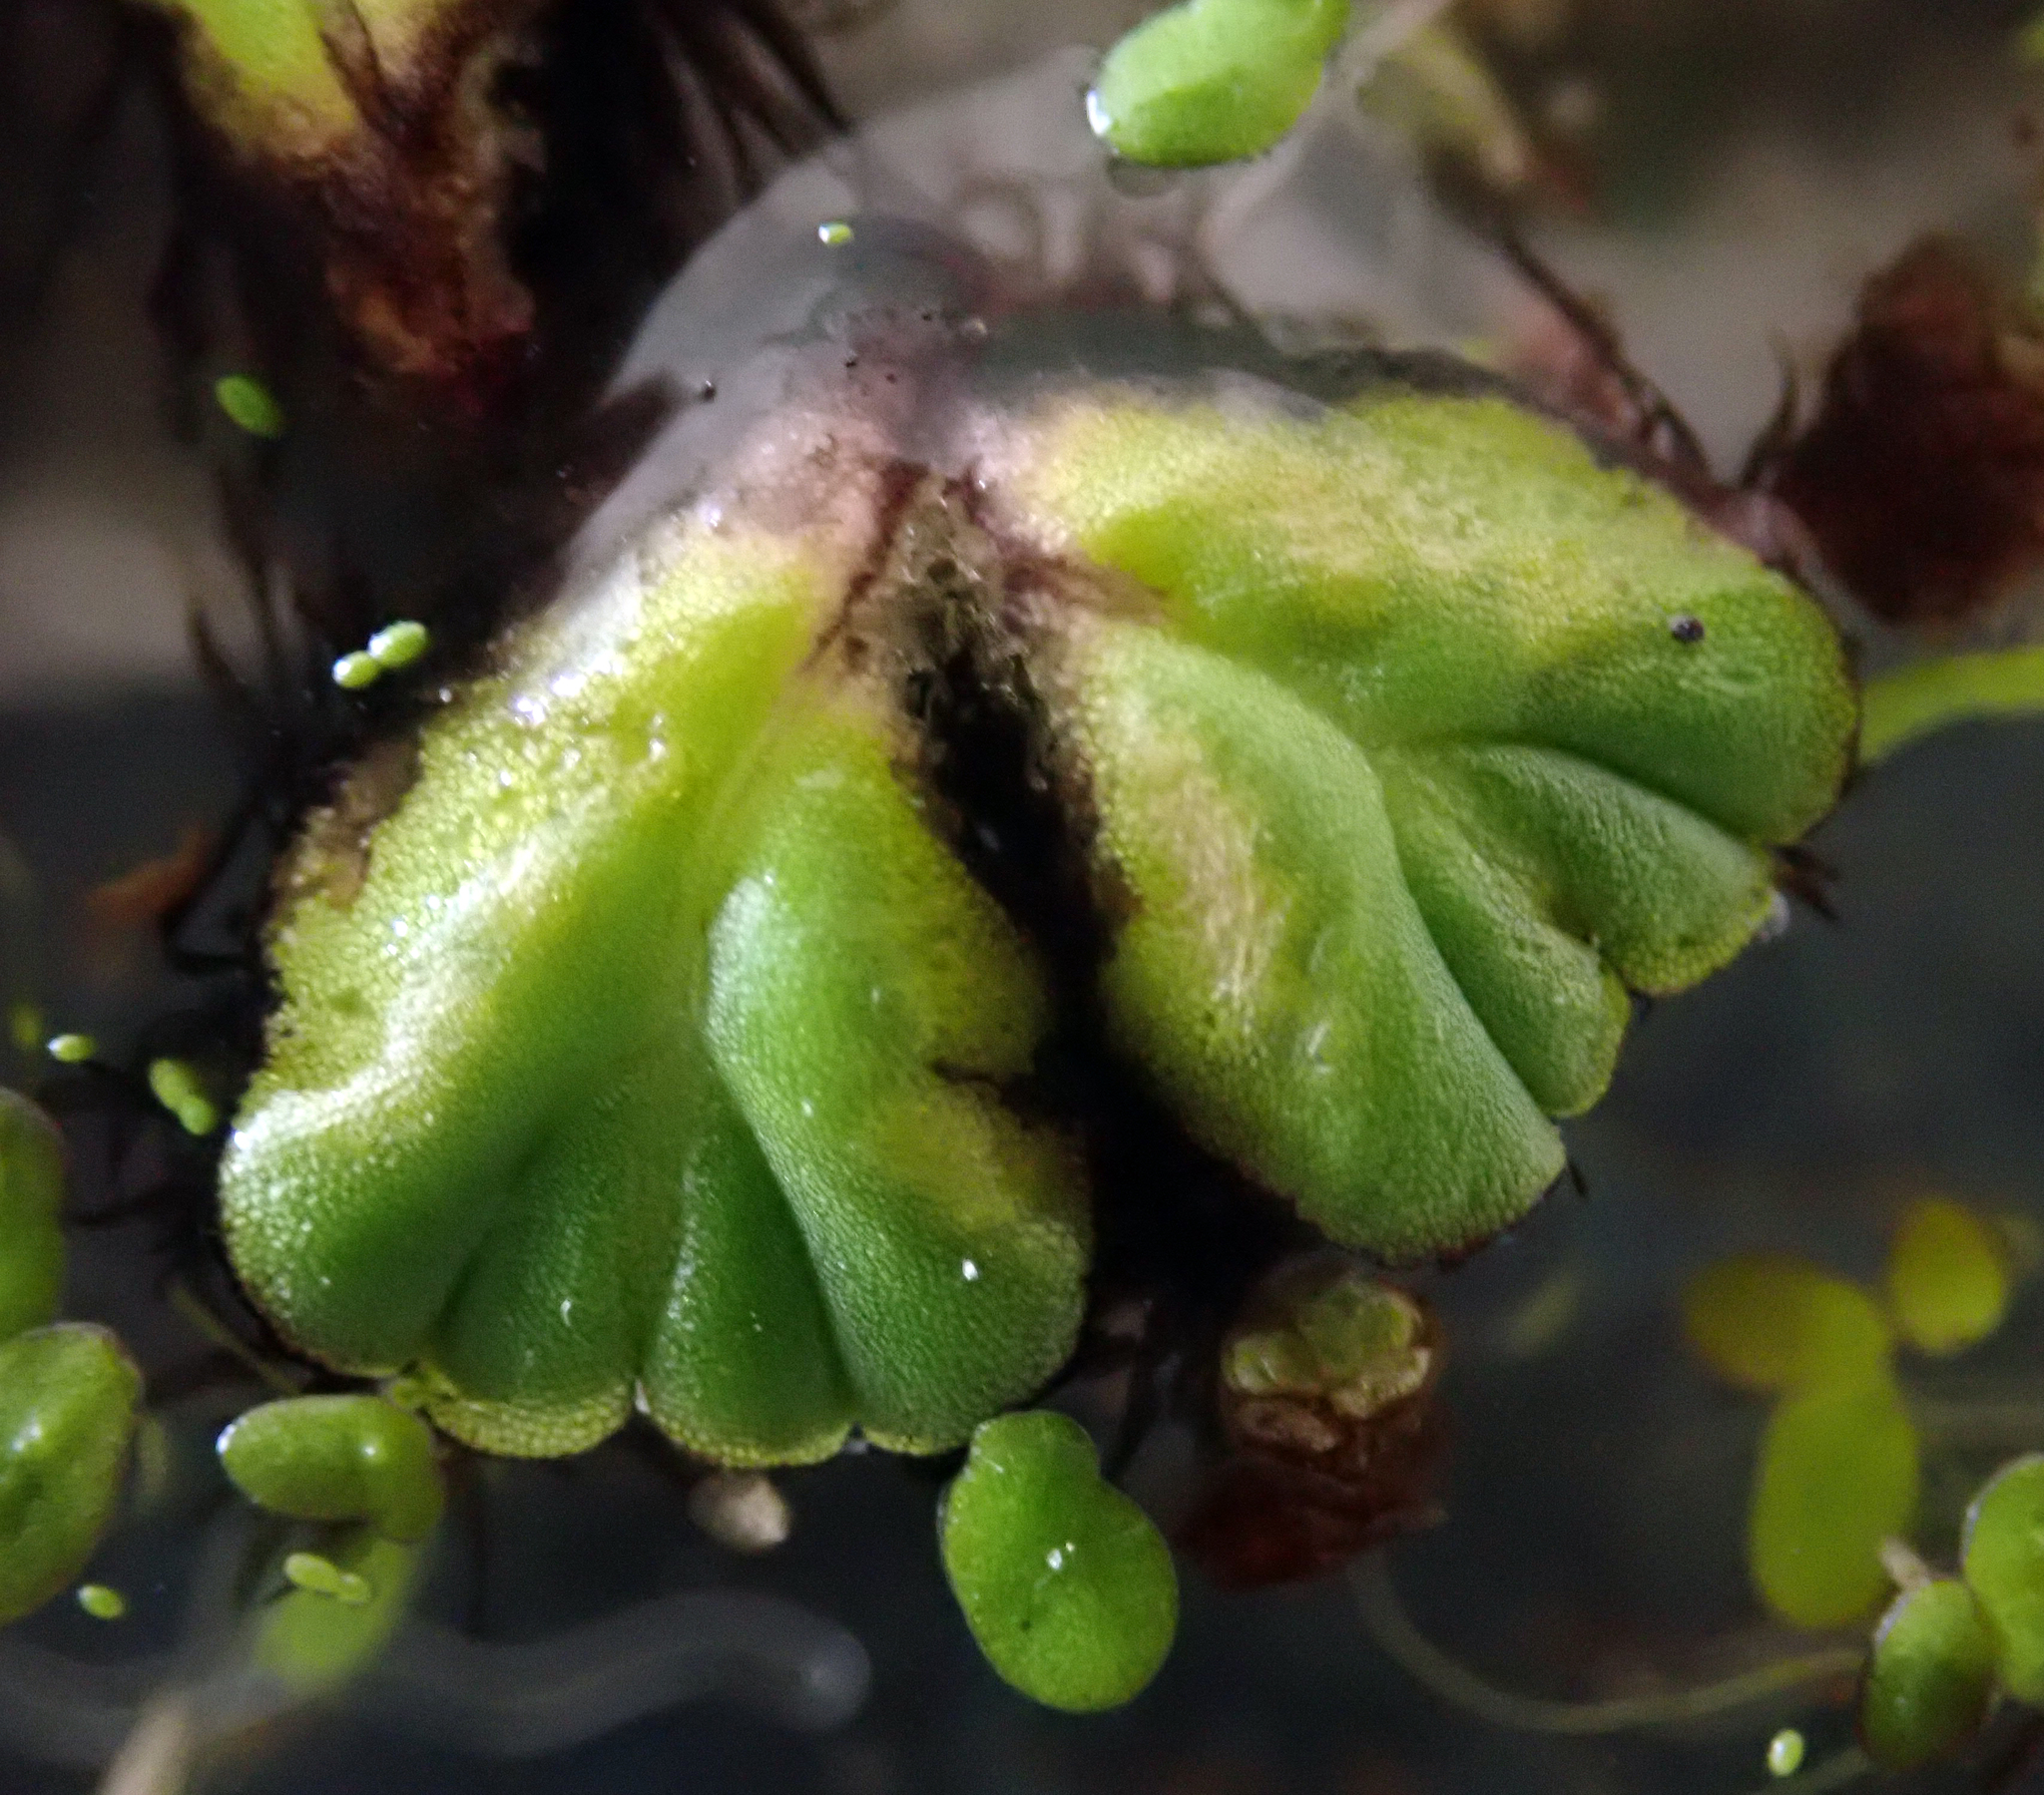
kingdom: Plantae
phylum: Marchantiophyta
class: Marchantiopsida
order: Marchantiales
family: Ricciaceae
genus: Ricciocarpos
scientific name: Ricciocarpos natans
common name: Purple-fringed liverwort
